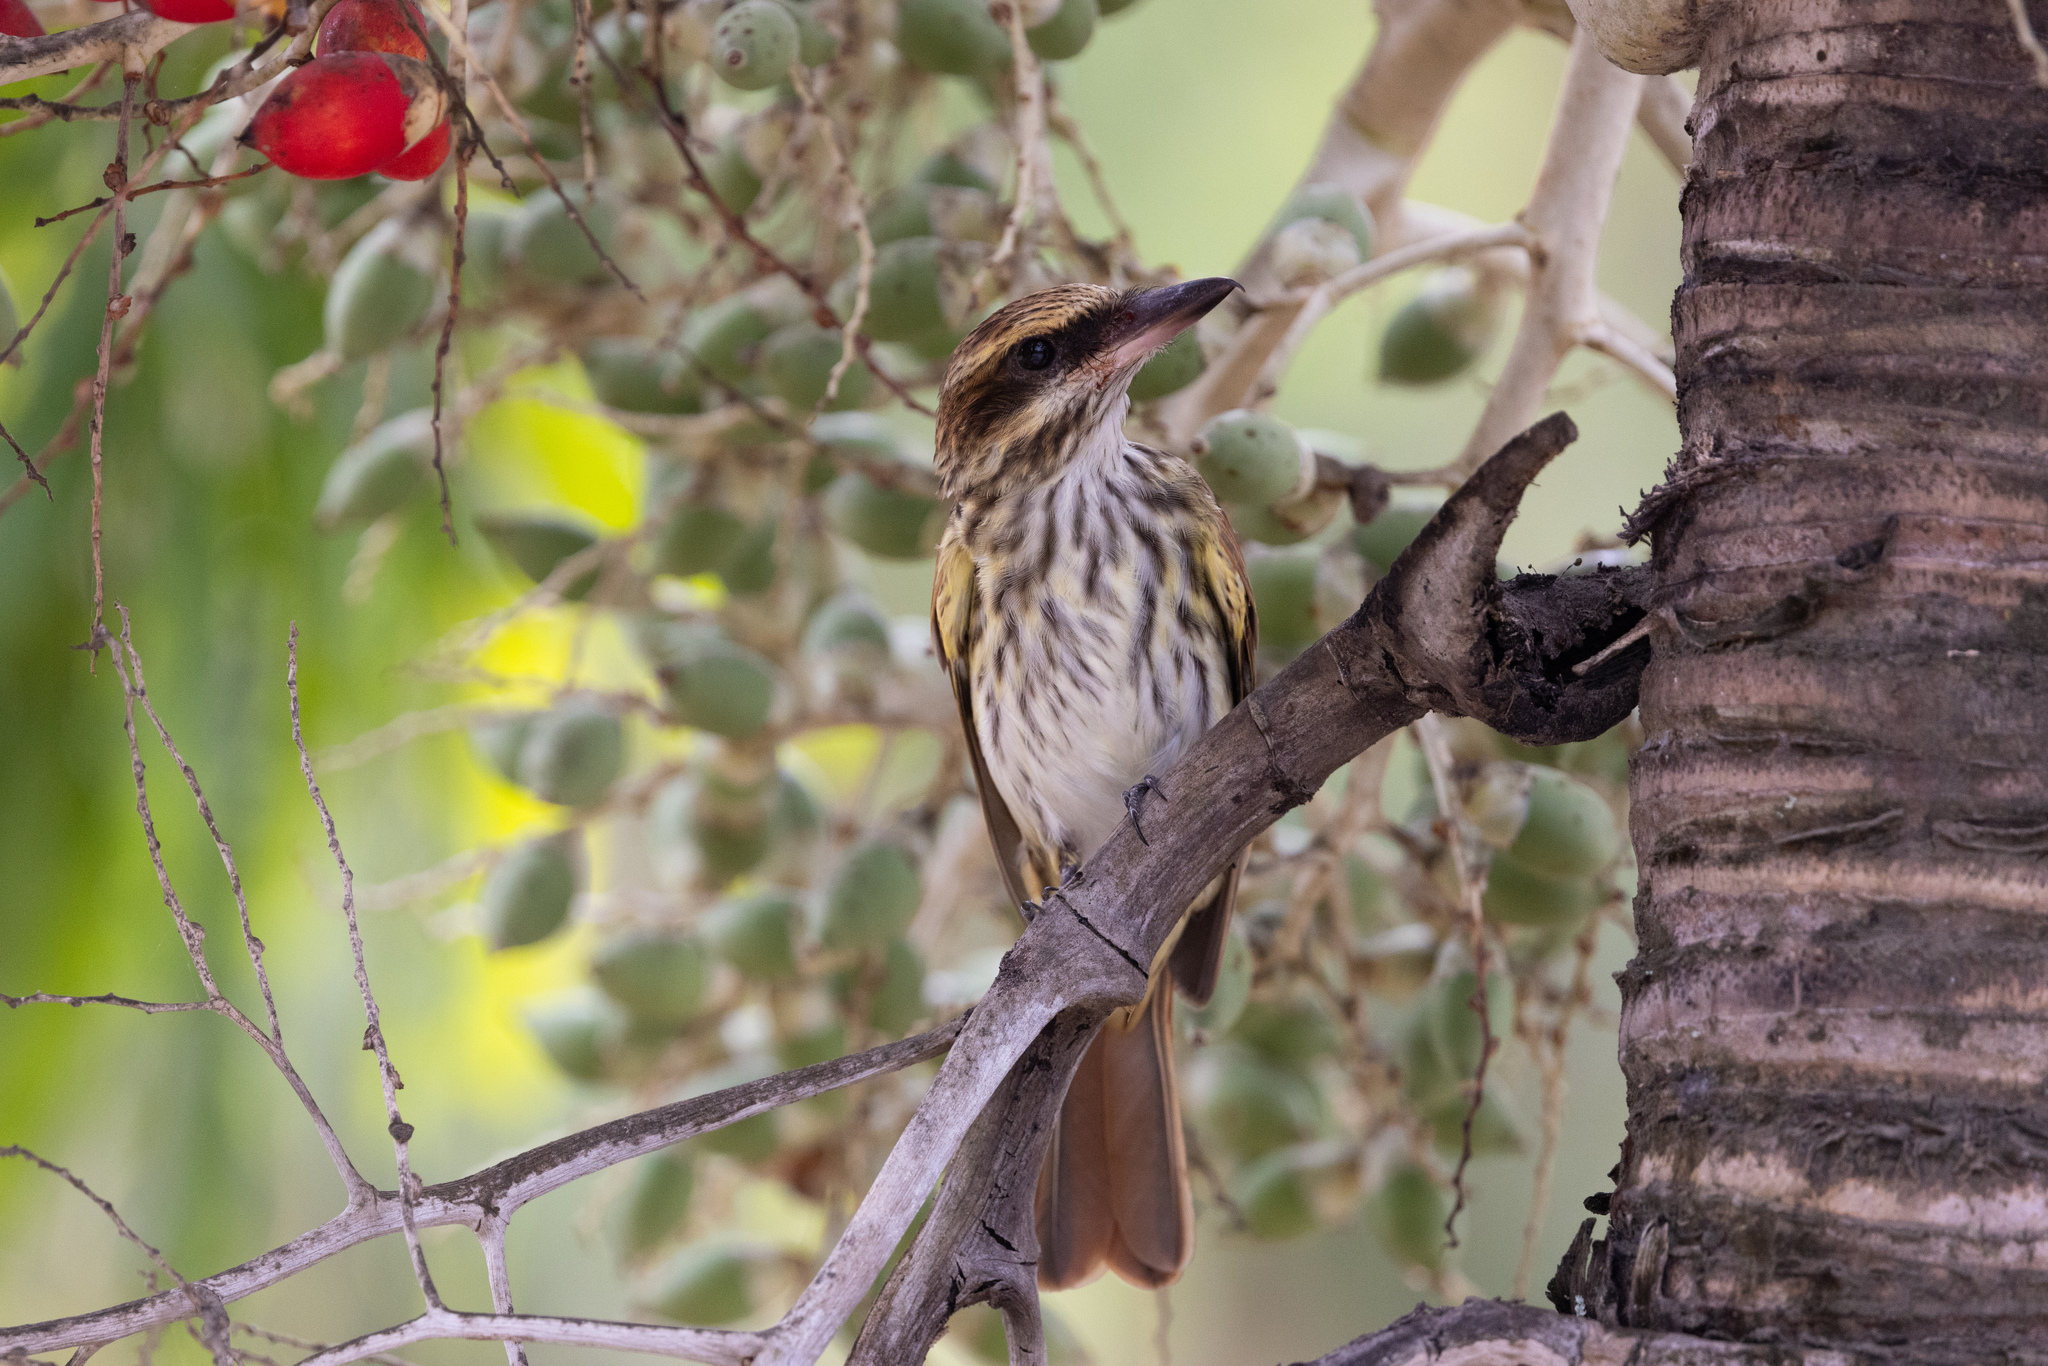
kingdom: Animalia
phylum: Chordata
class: Aves
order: Passeriformes
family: Tyrannidae
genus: Myiodynastes
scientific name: Myiodynastes maculatus
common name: Streaked flycatcher
